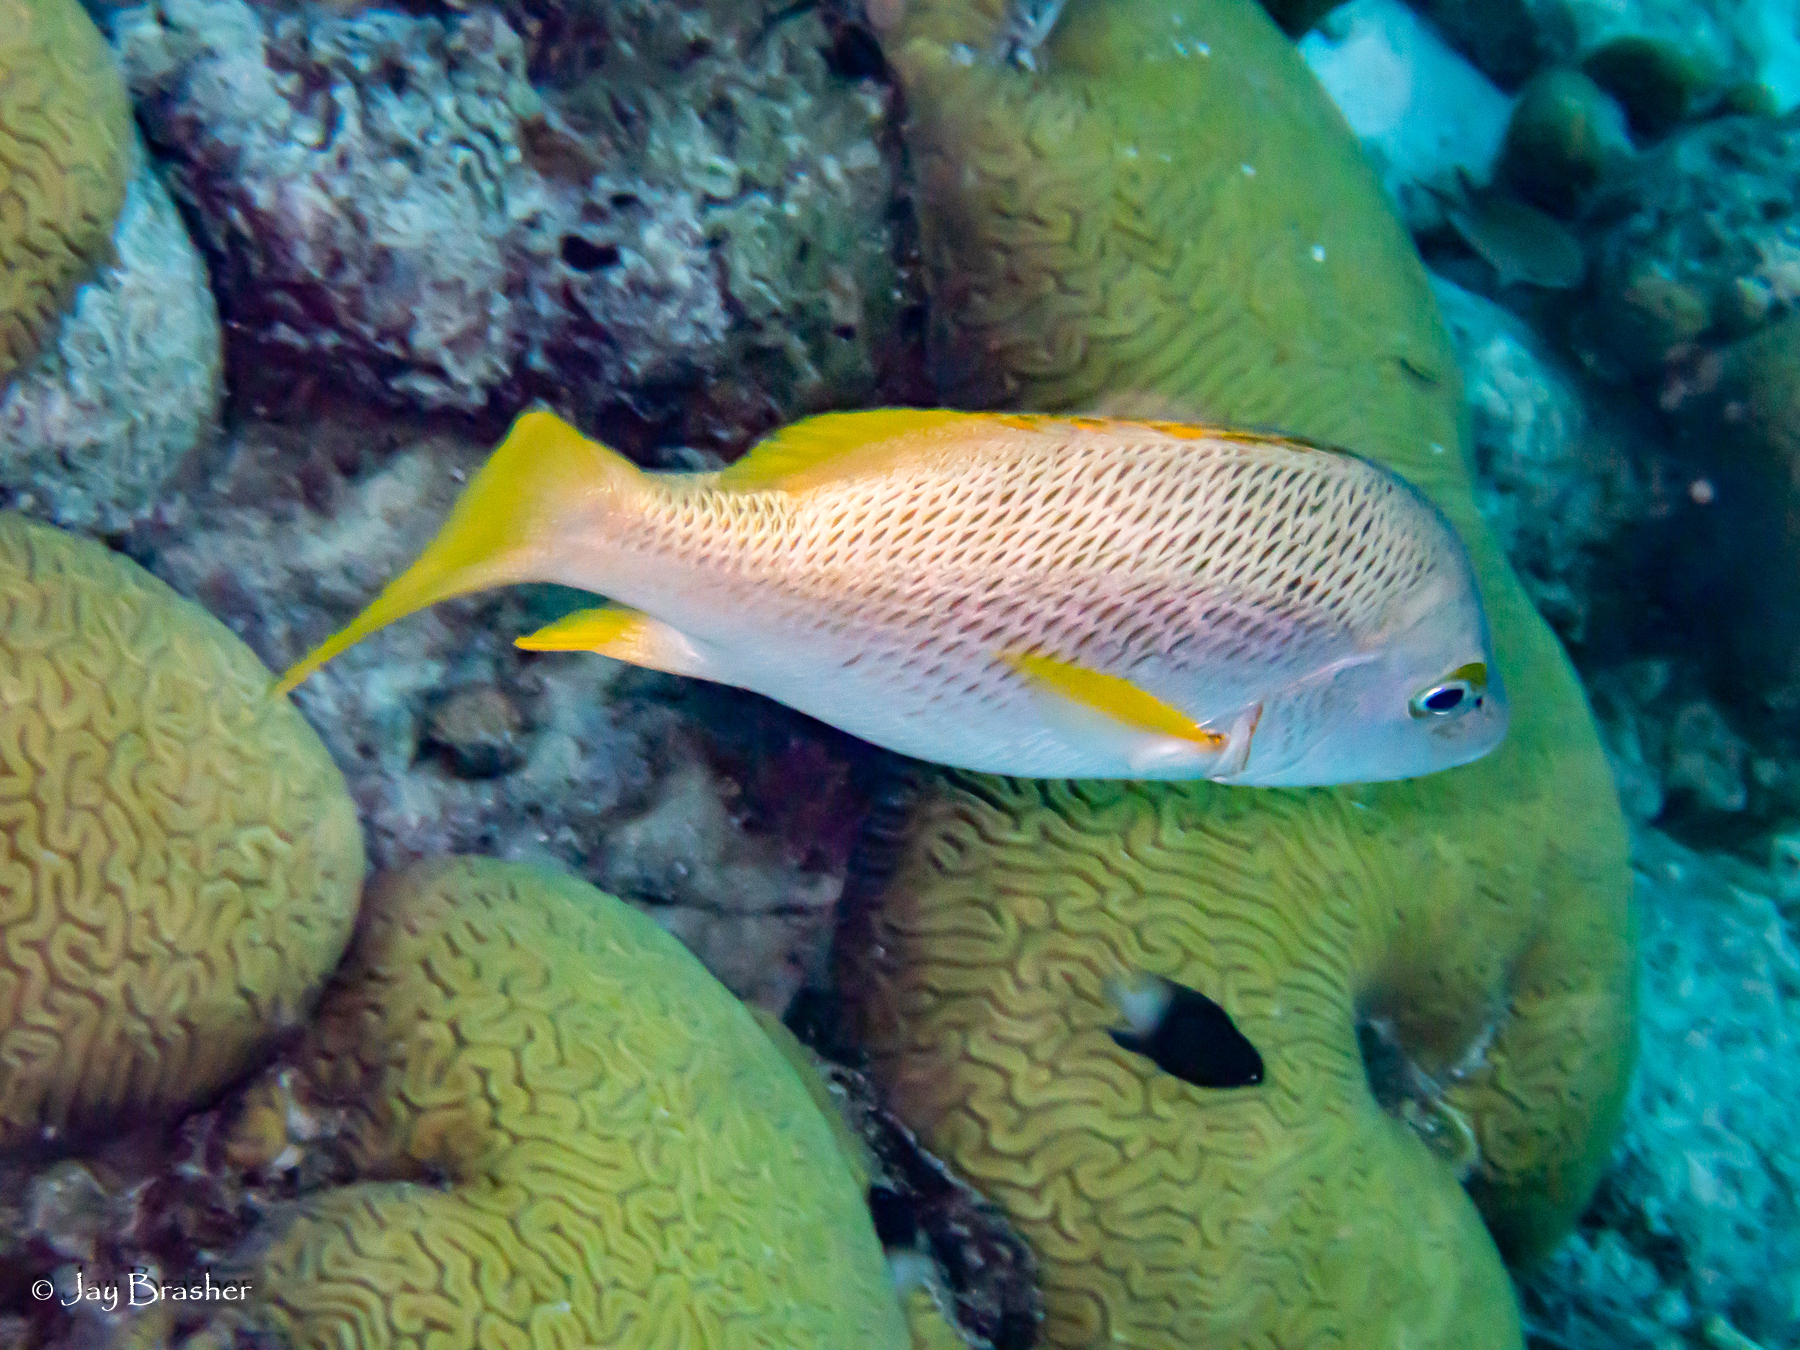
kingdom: Animalia
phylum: Chordata
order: Perciformes
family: Pomacentridae
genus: Stegastes
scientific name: Stegastes partitus
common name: Bicolor damselfish
